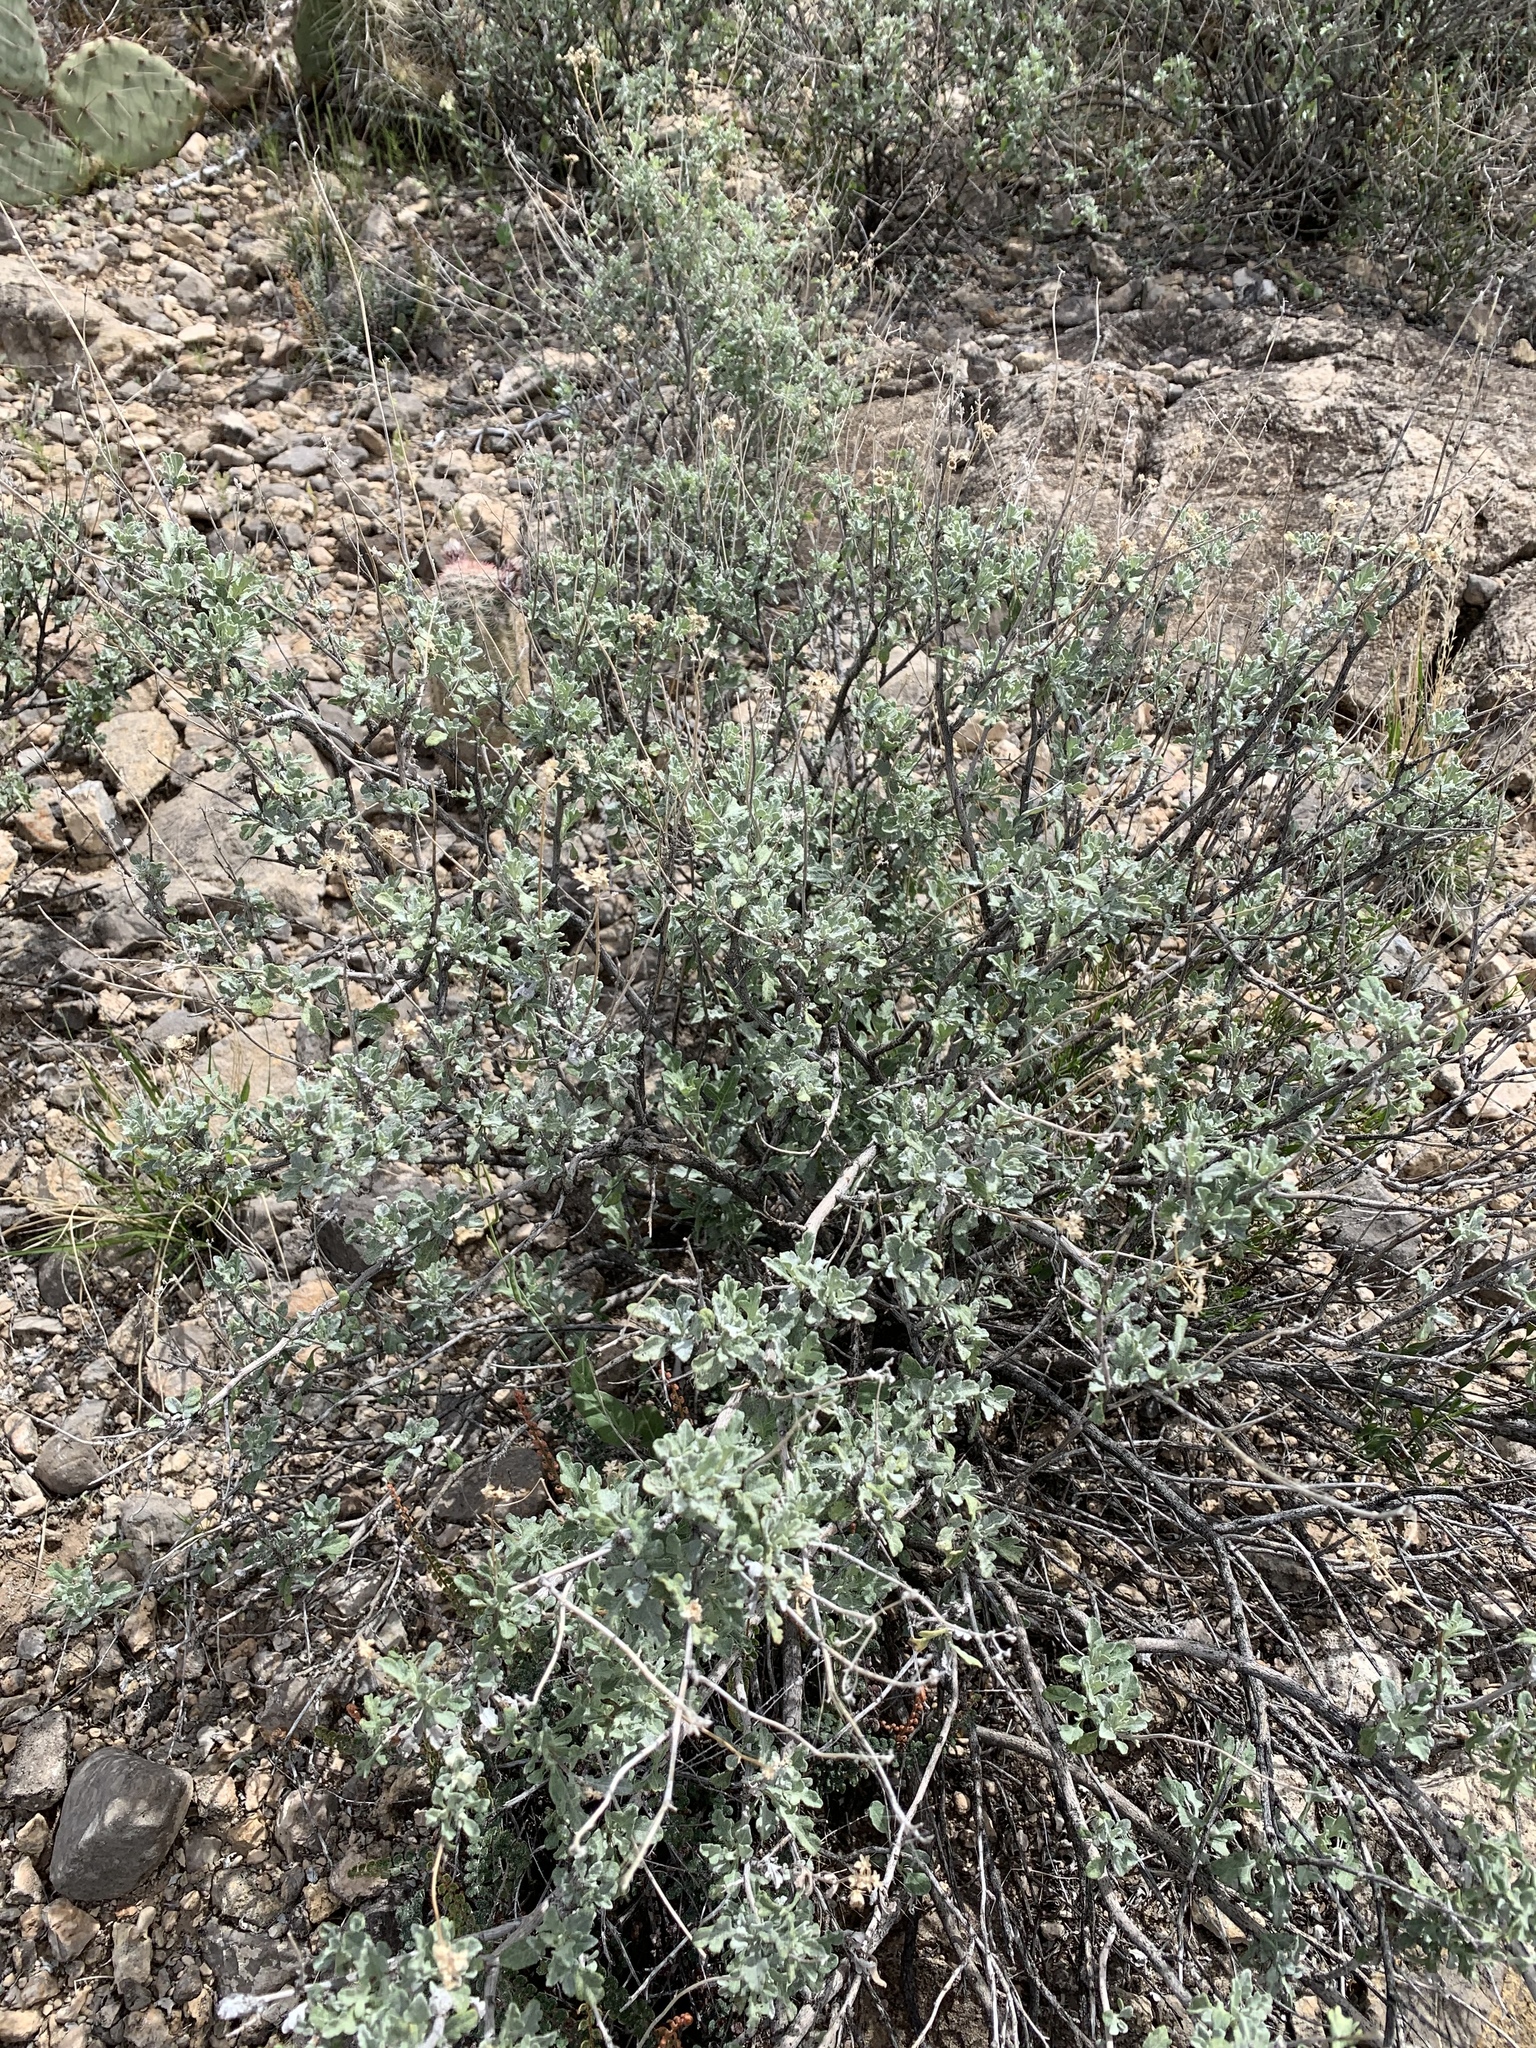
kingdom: Plantae
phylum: Tracheophyta
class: Magnoliopsida
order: Asterales
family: Asteraceae
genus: Parthenium
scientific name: Parthenium incanum
